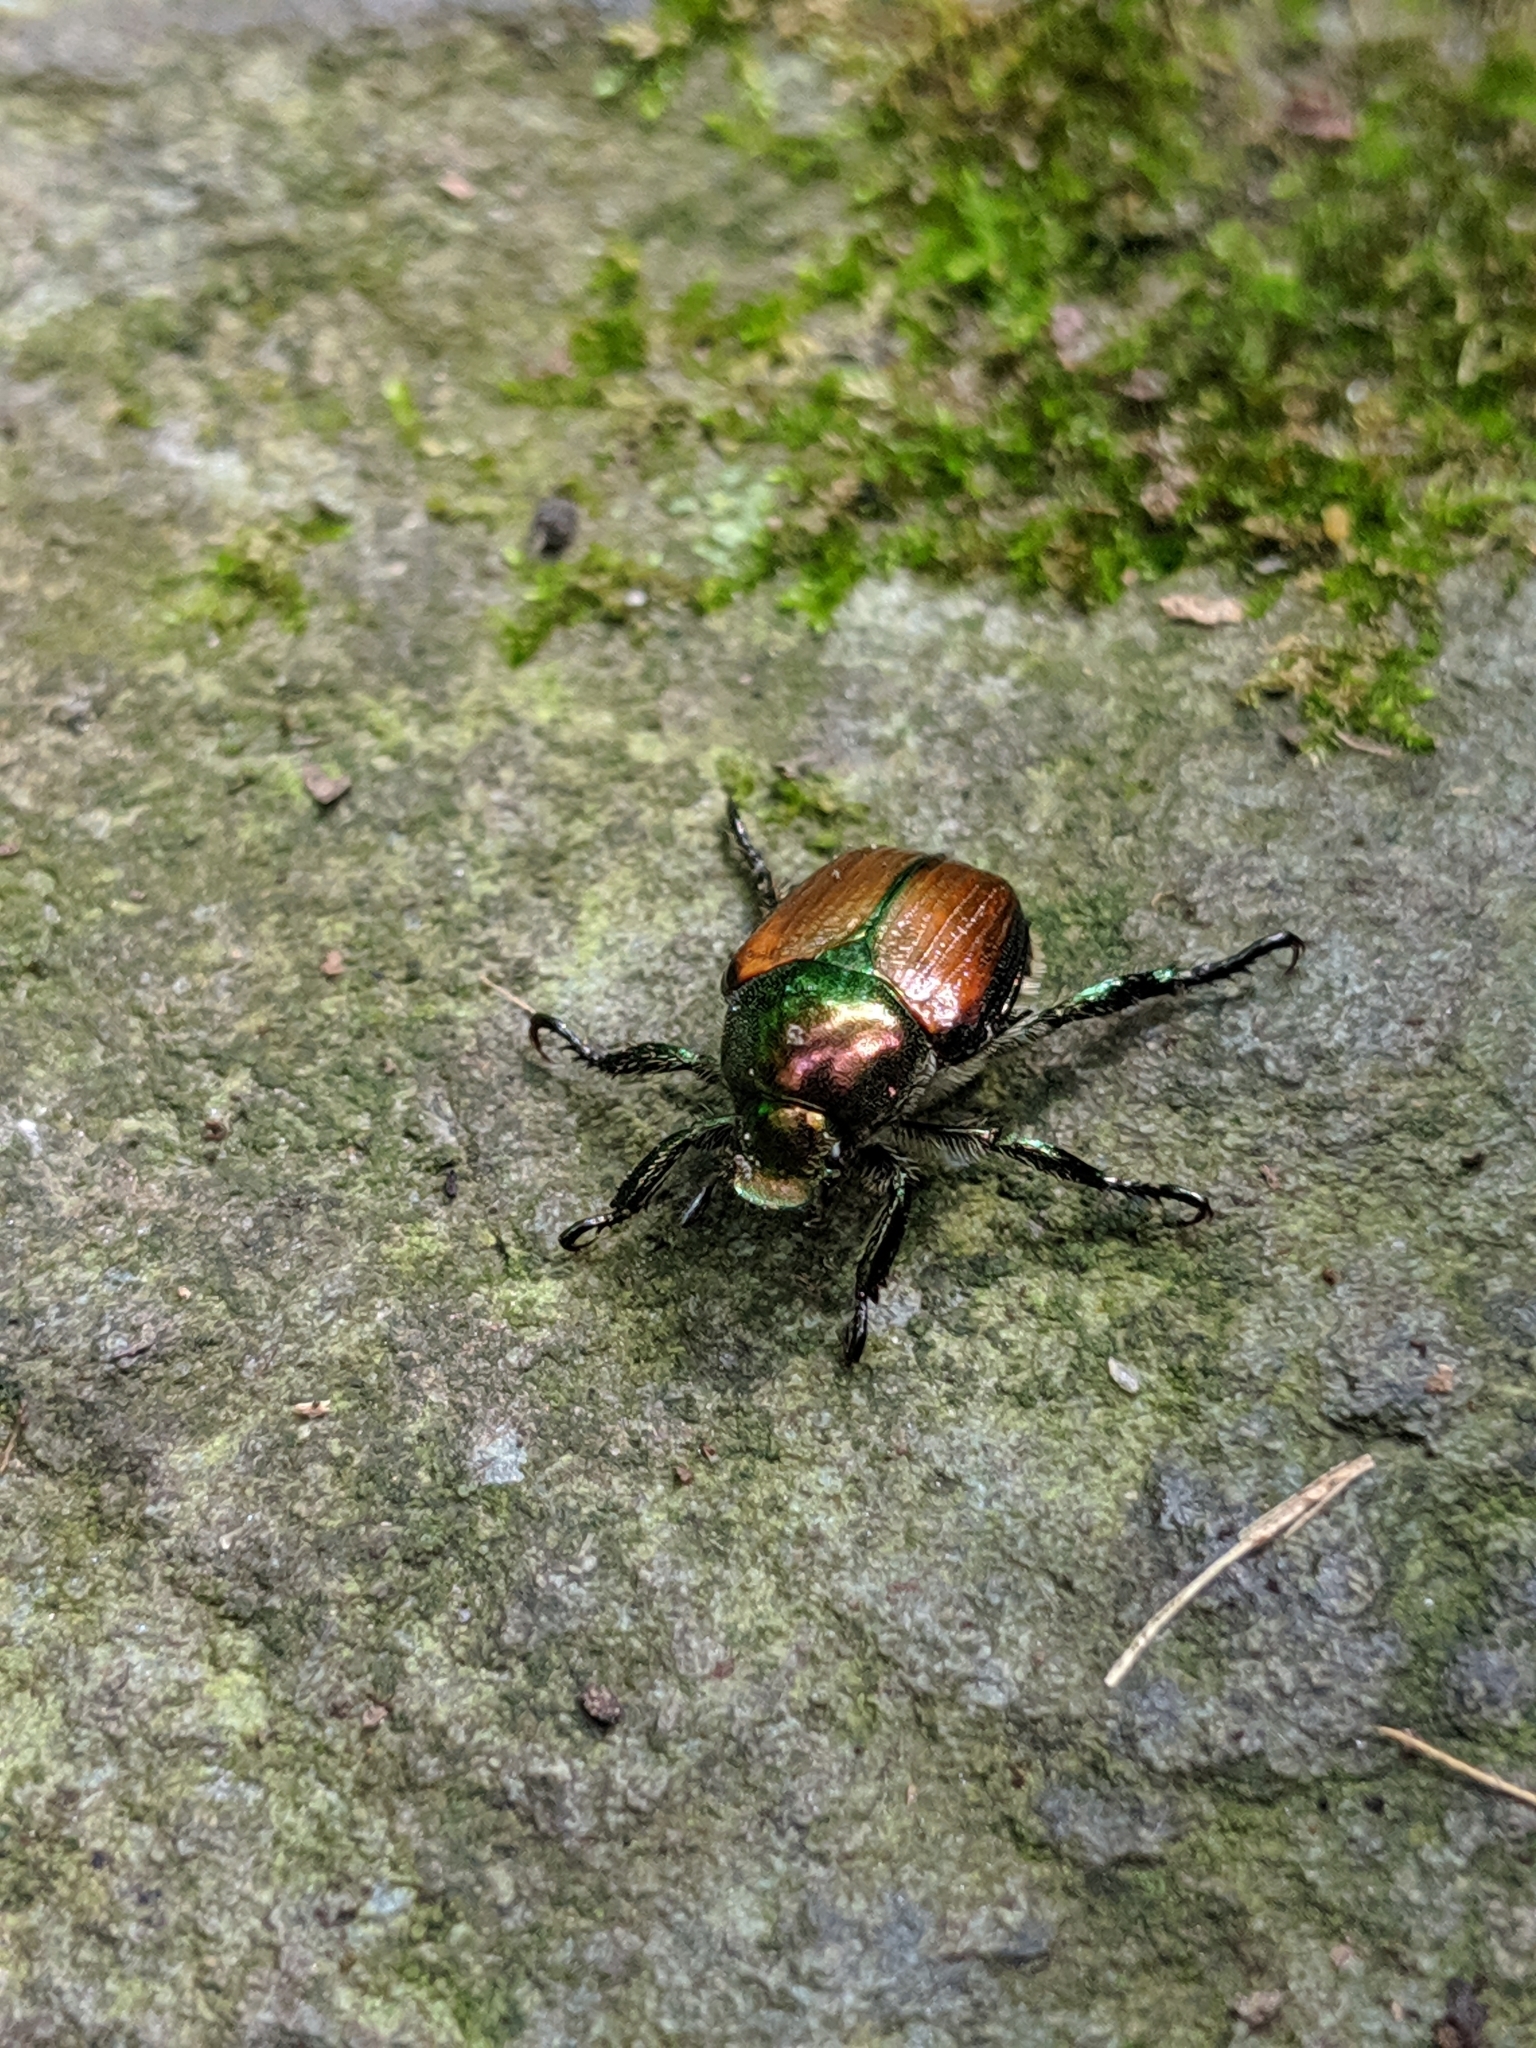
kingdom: Animalia
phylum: Arthropoda
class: Insecta
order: Coleoptera
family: Scarabaeidae
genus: Popillia
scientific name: Popillia japonica
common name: Japanese beetle
